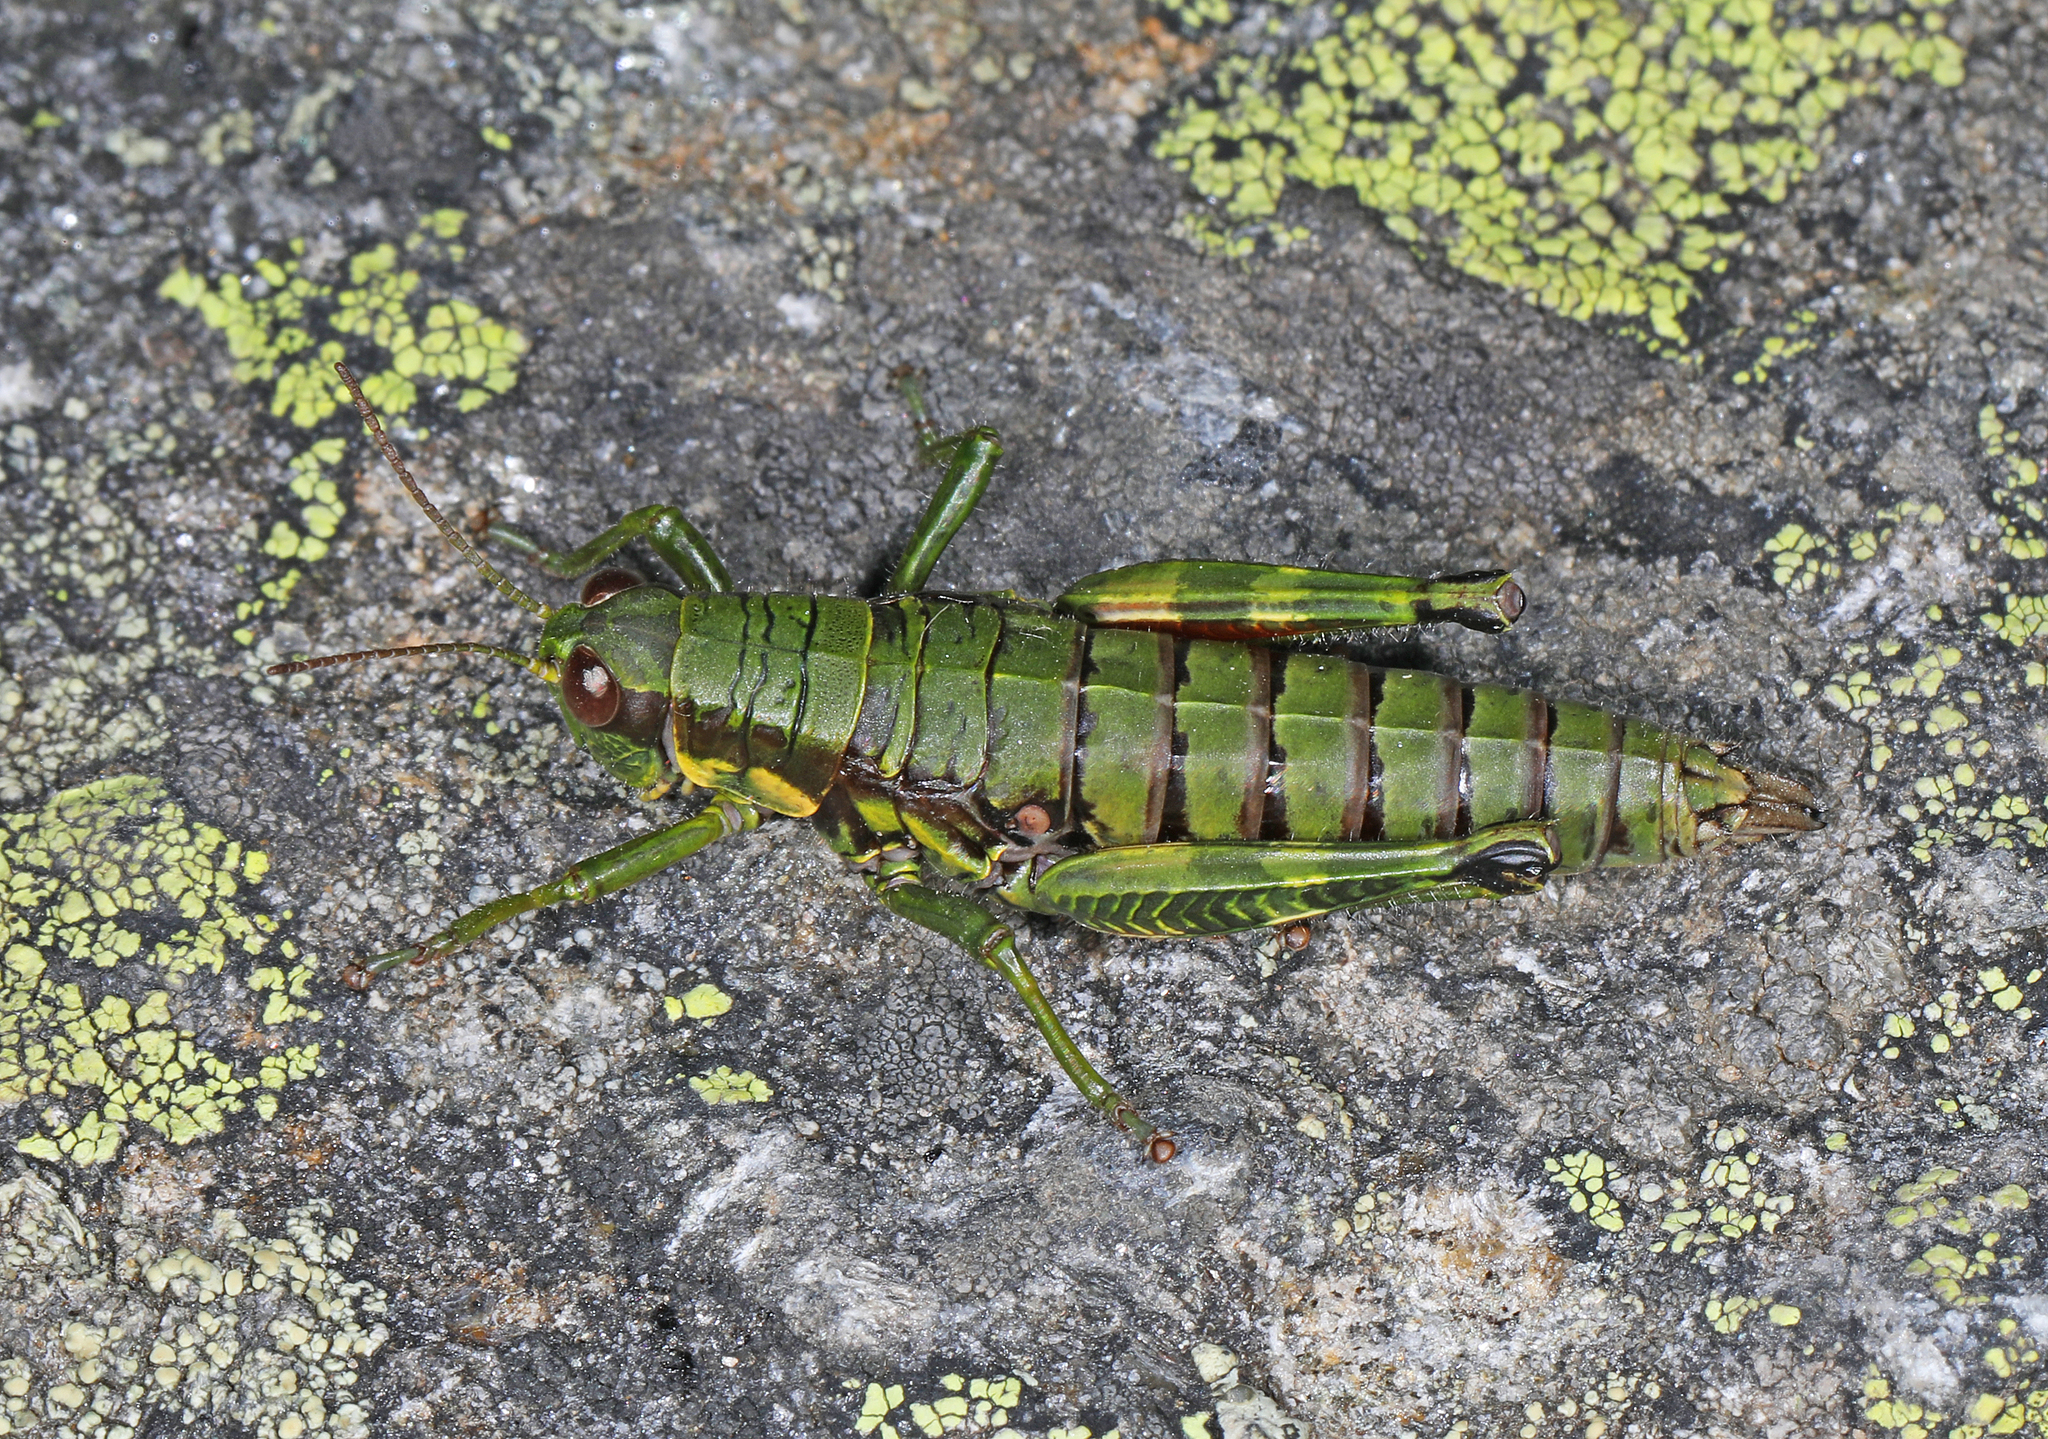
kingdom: Animalia
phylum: Arthropoda
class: Insecta
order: Orthoptera
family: Acrididae
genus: Booneacris
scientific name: Booneacris glacialis
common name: Wingless mountain grasshopper
